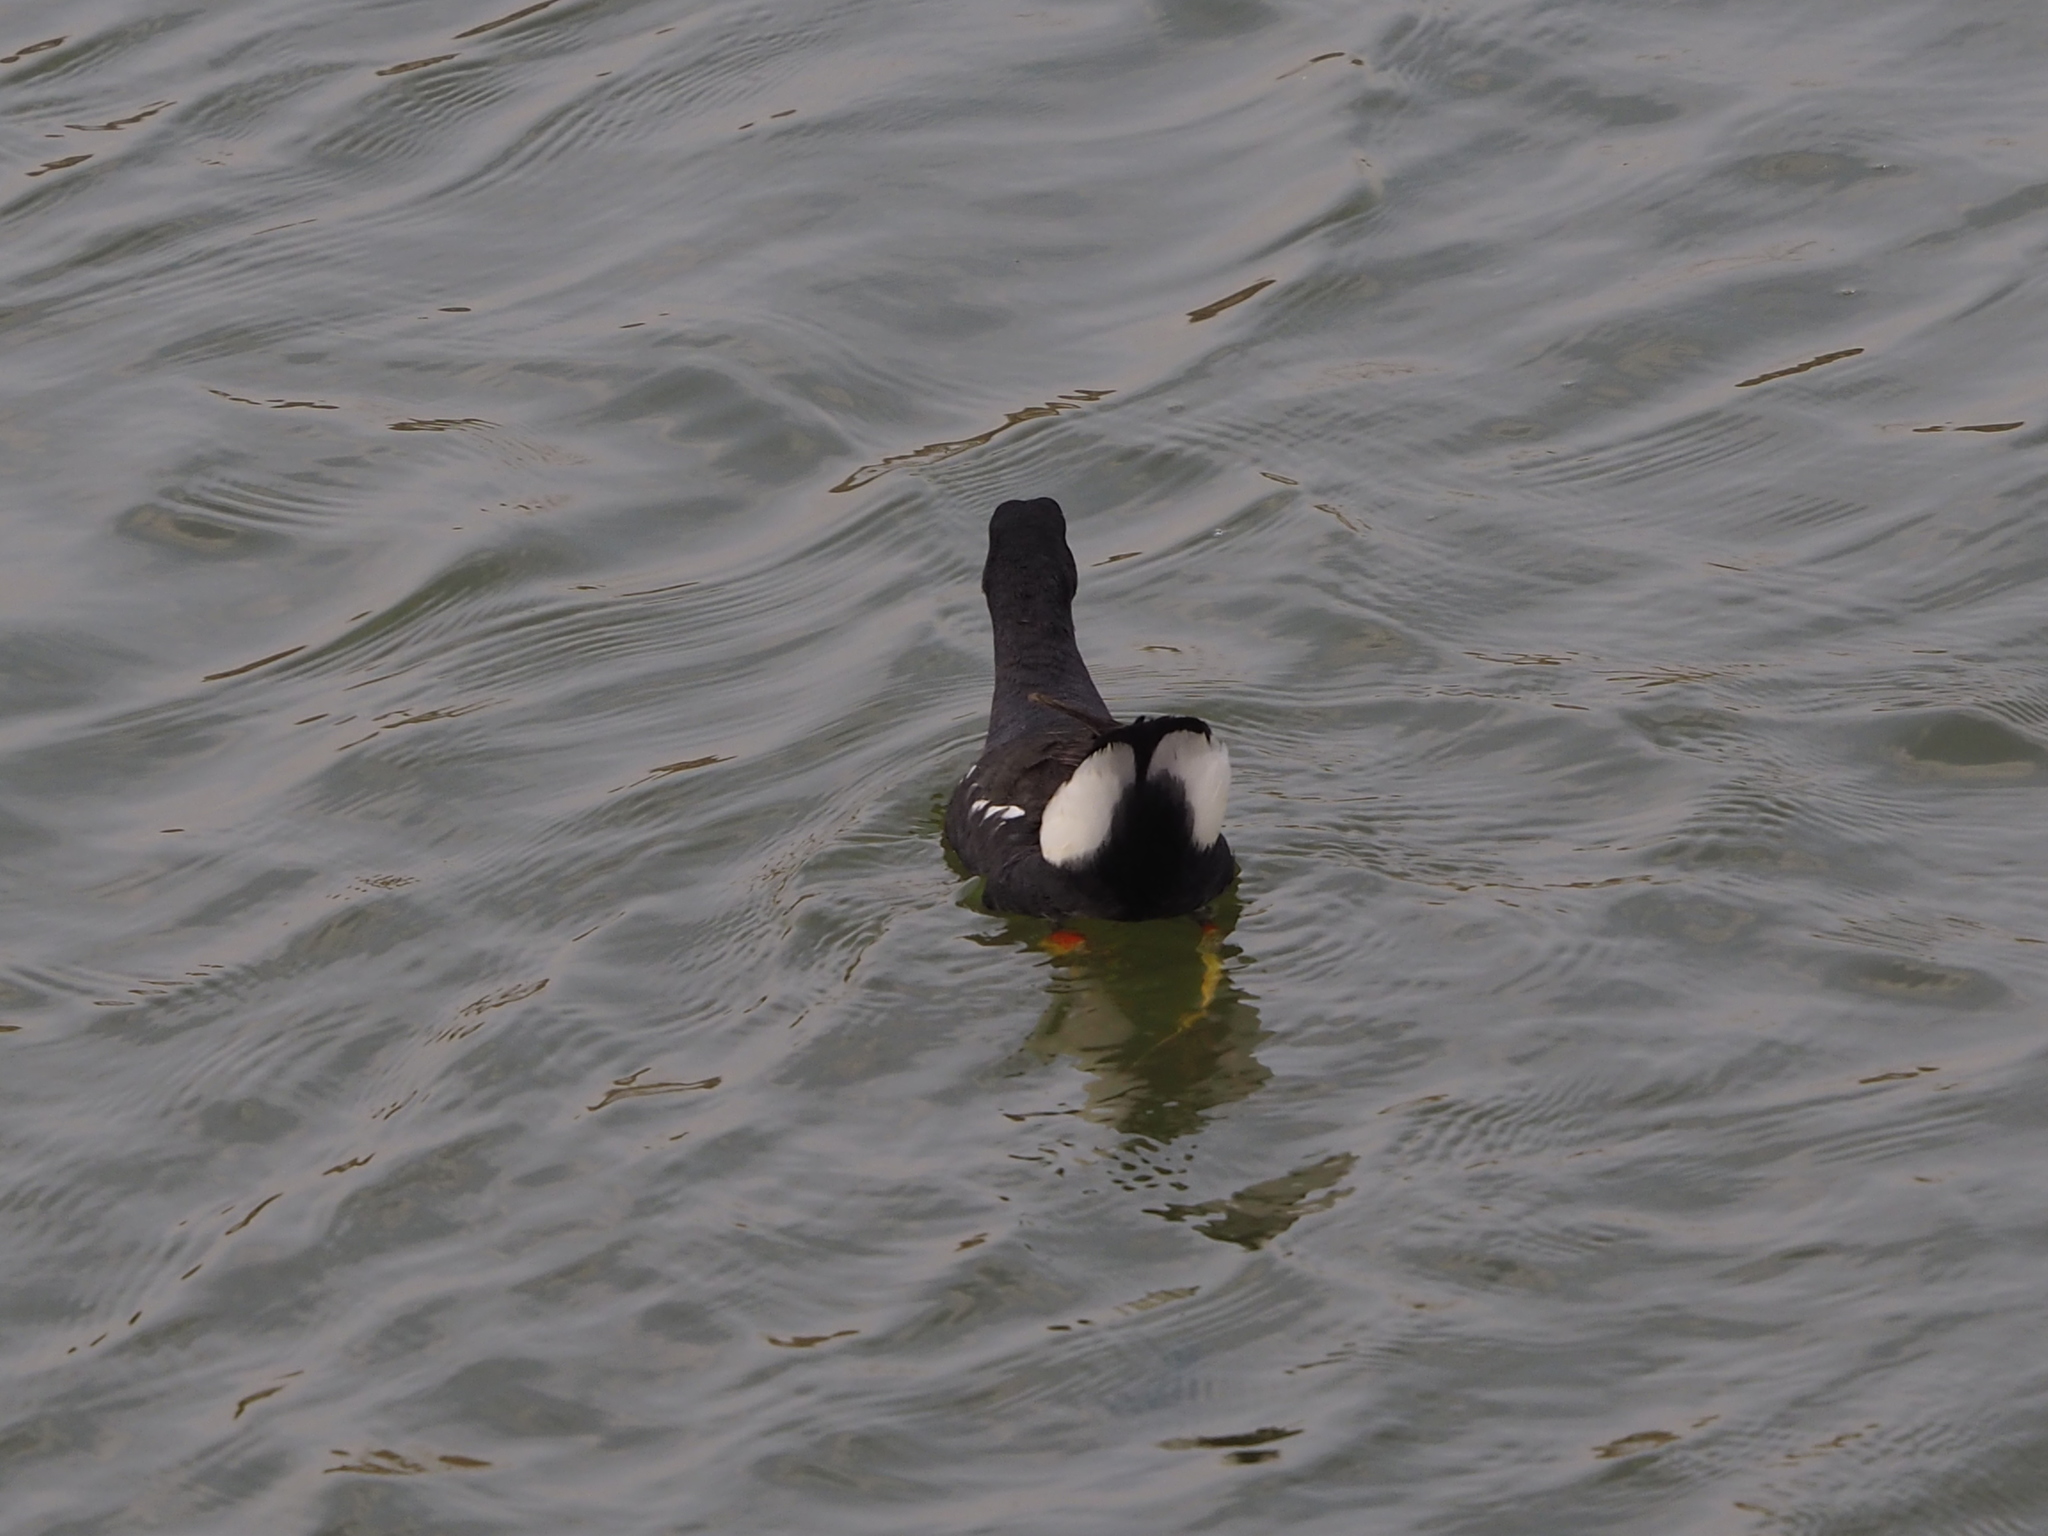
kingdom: Animalia
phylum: Chordata
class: Aves
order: Gruiformes
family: Rallidae
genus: Gallinula
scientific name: Gallinula chloropus
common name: Common moorhen
